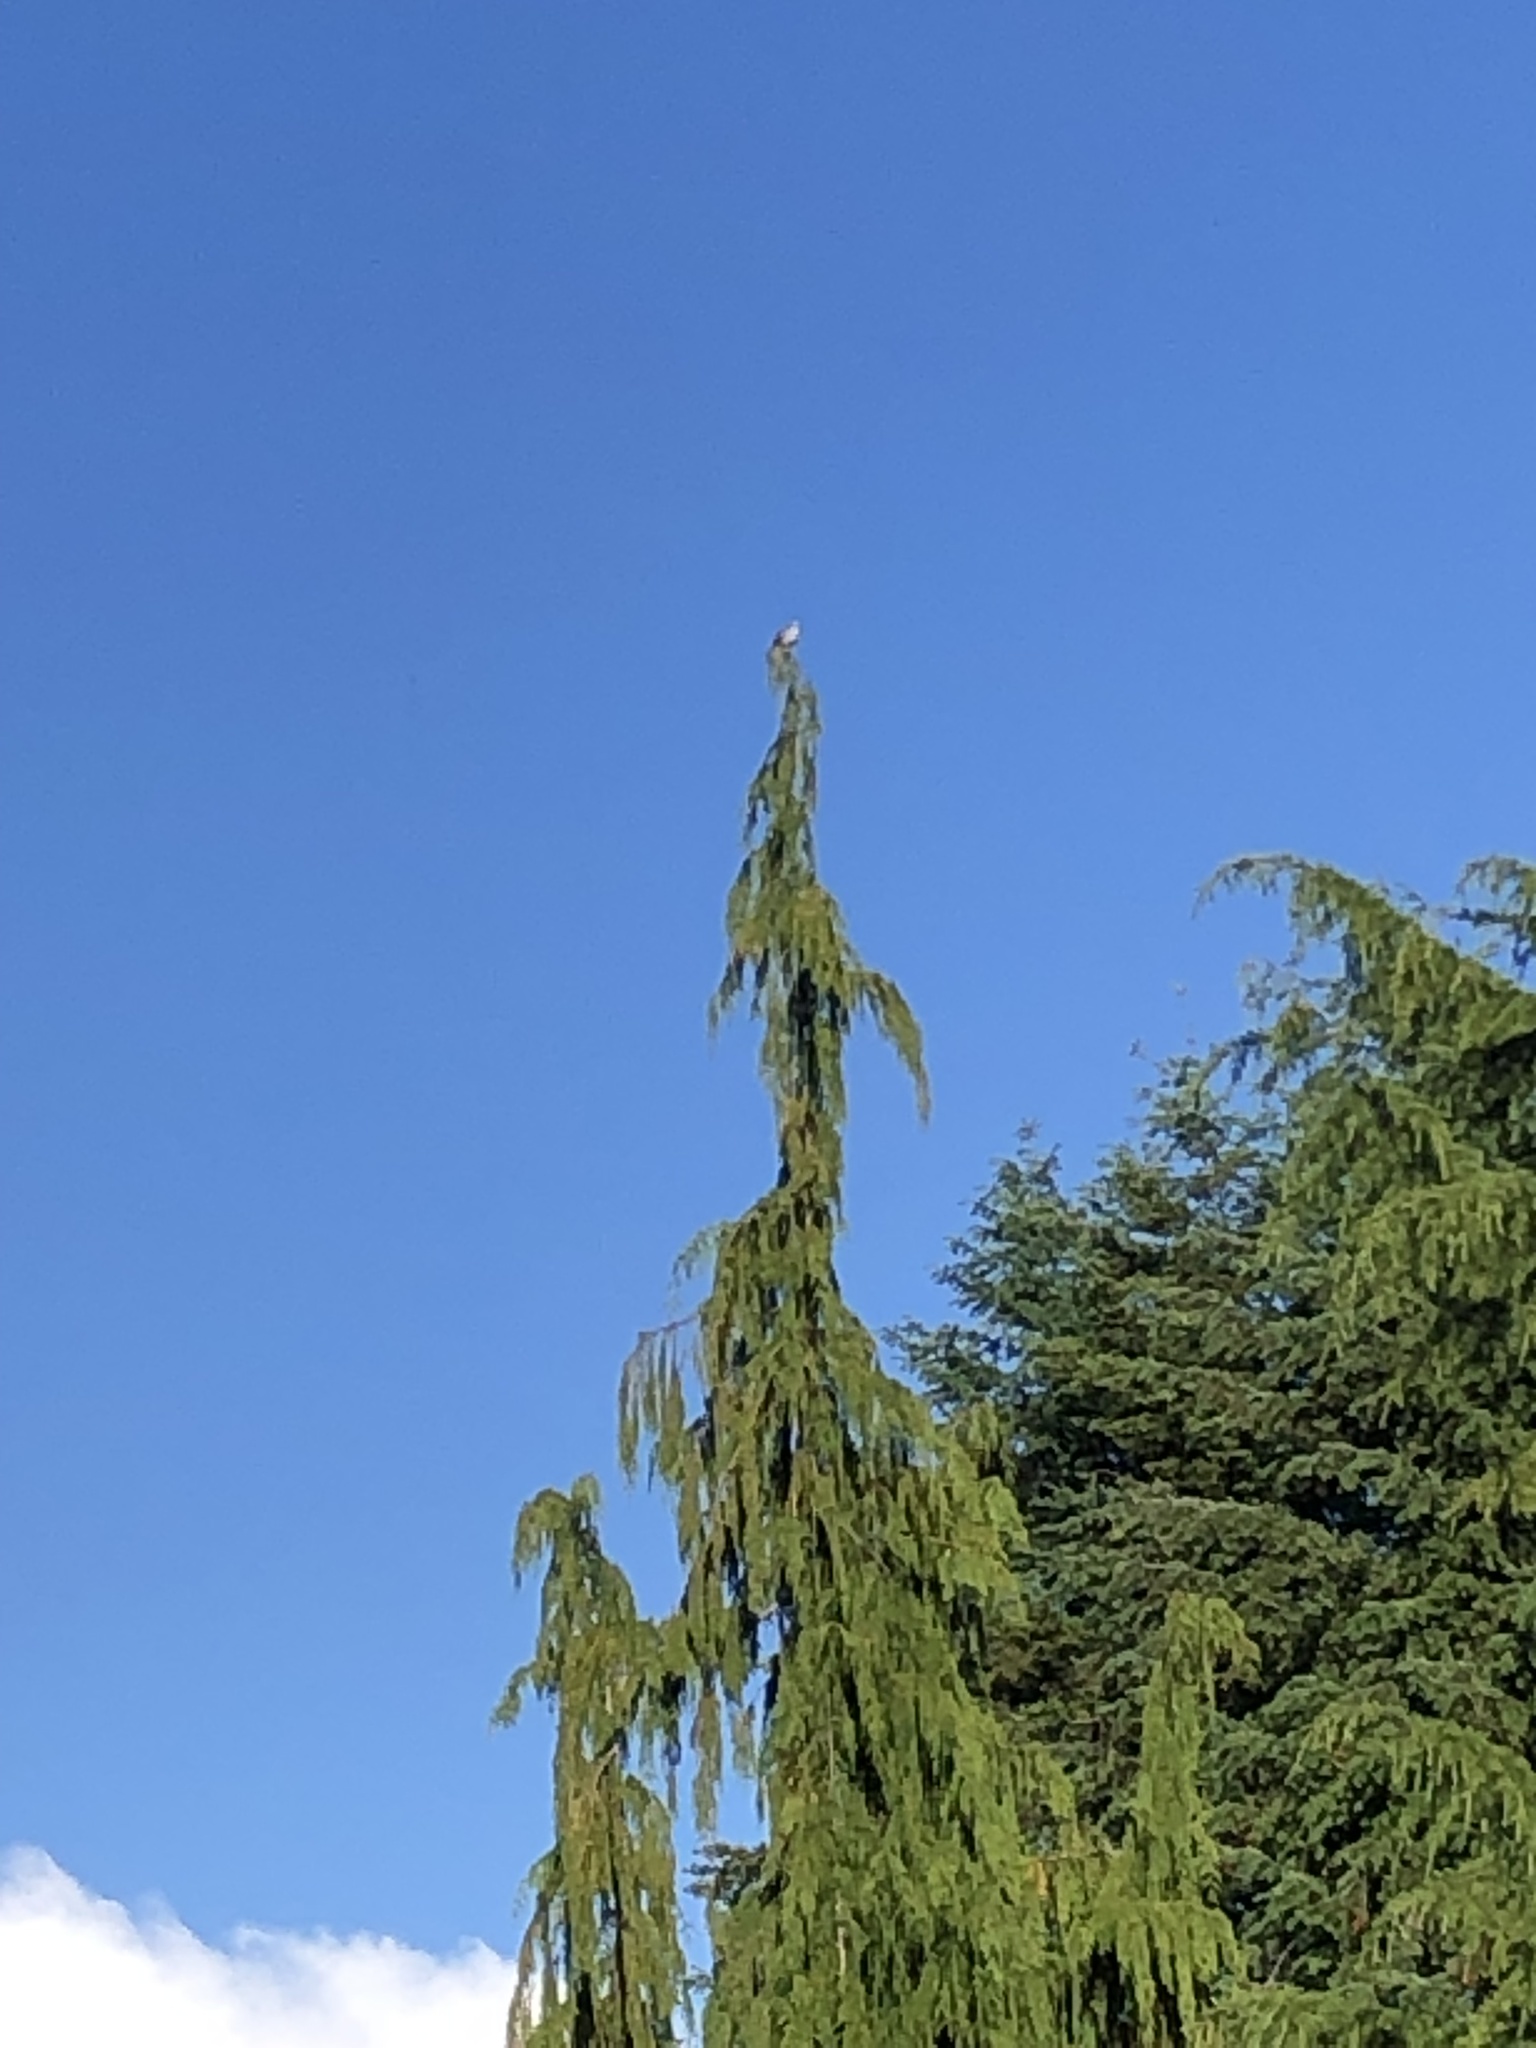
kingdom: Animalia
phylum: Chordata
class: Aves
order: Columbiformes
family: Columbidae
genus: Streptopelia
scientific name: Streptopelia decaocto
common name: Eurasian collared dove
